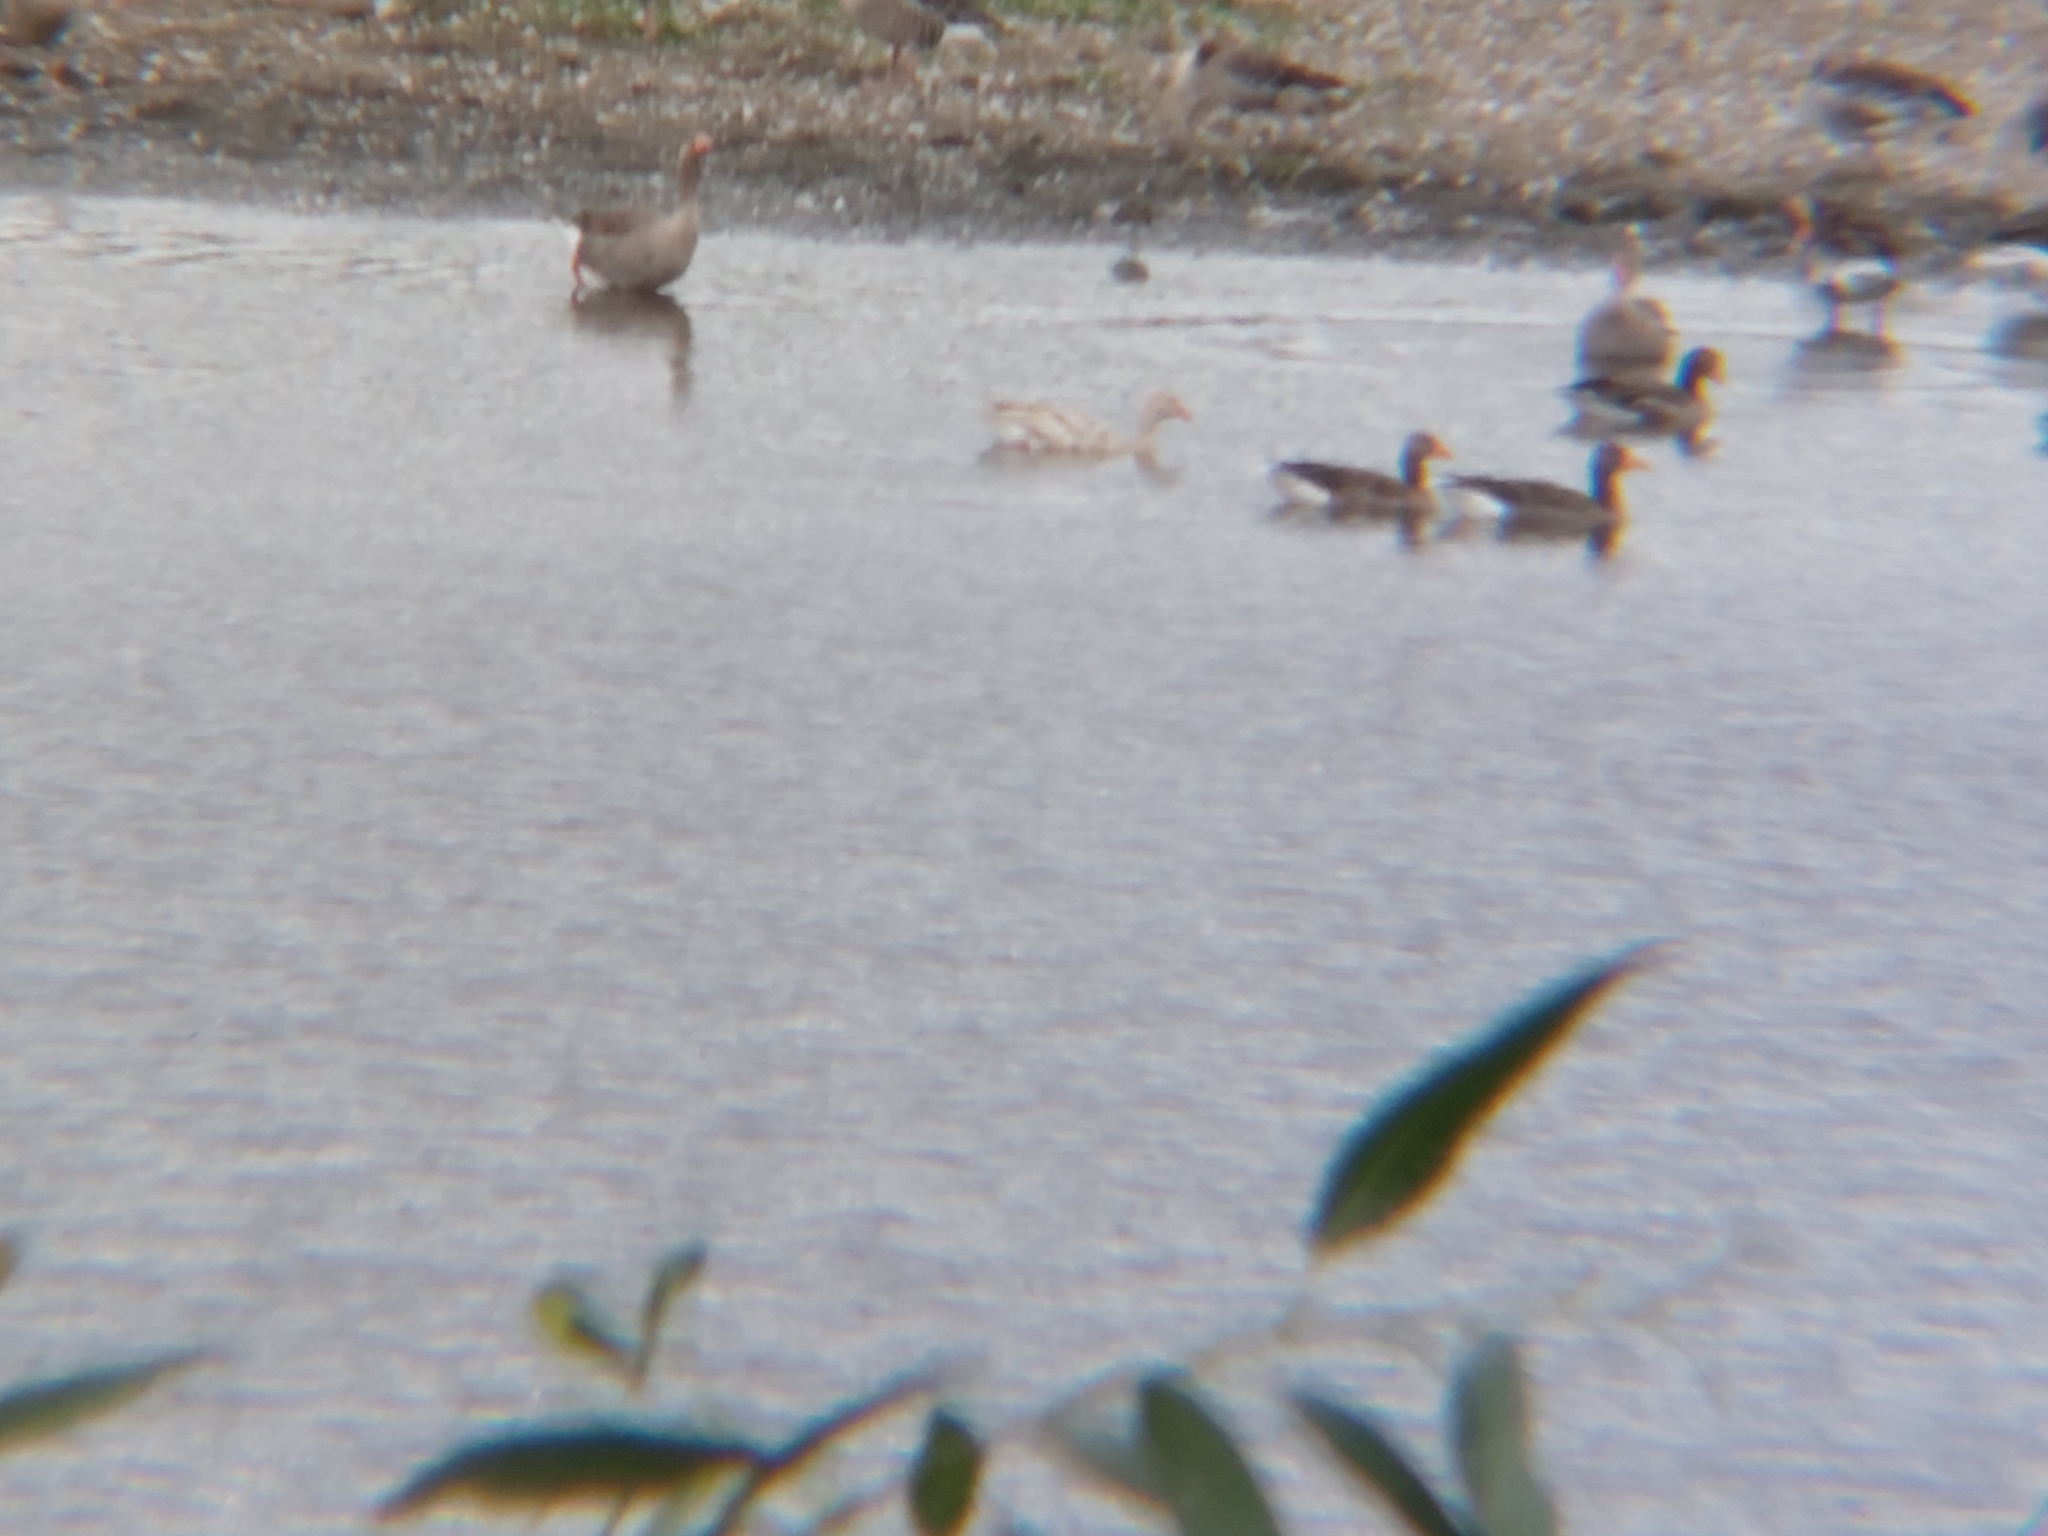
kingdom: Animalia
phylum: Chordata
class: Aves
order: Anseriformes
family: Anatidae
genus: Anser
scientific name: Anser anser
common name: Greylag goose
